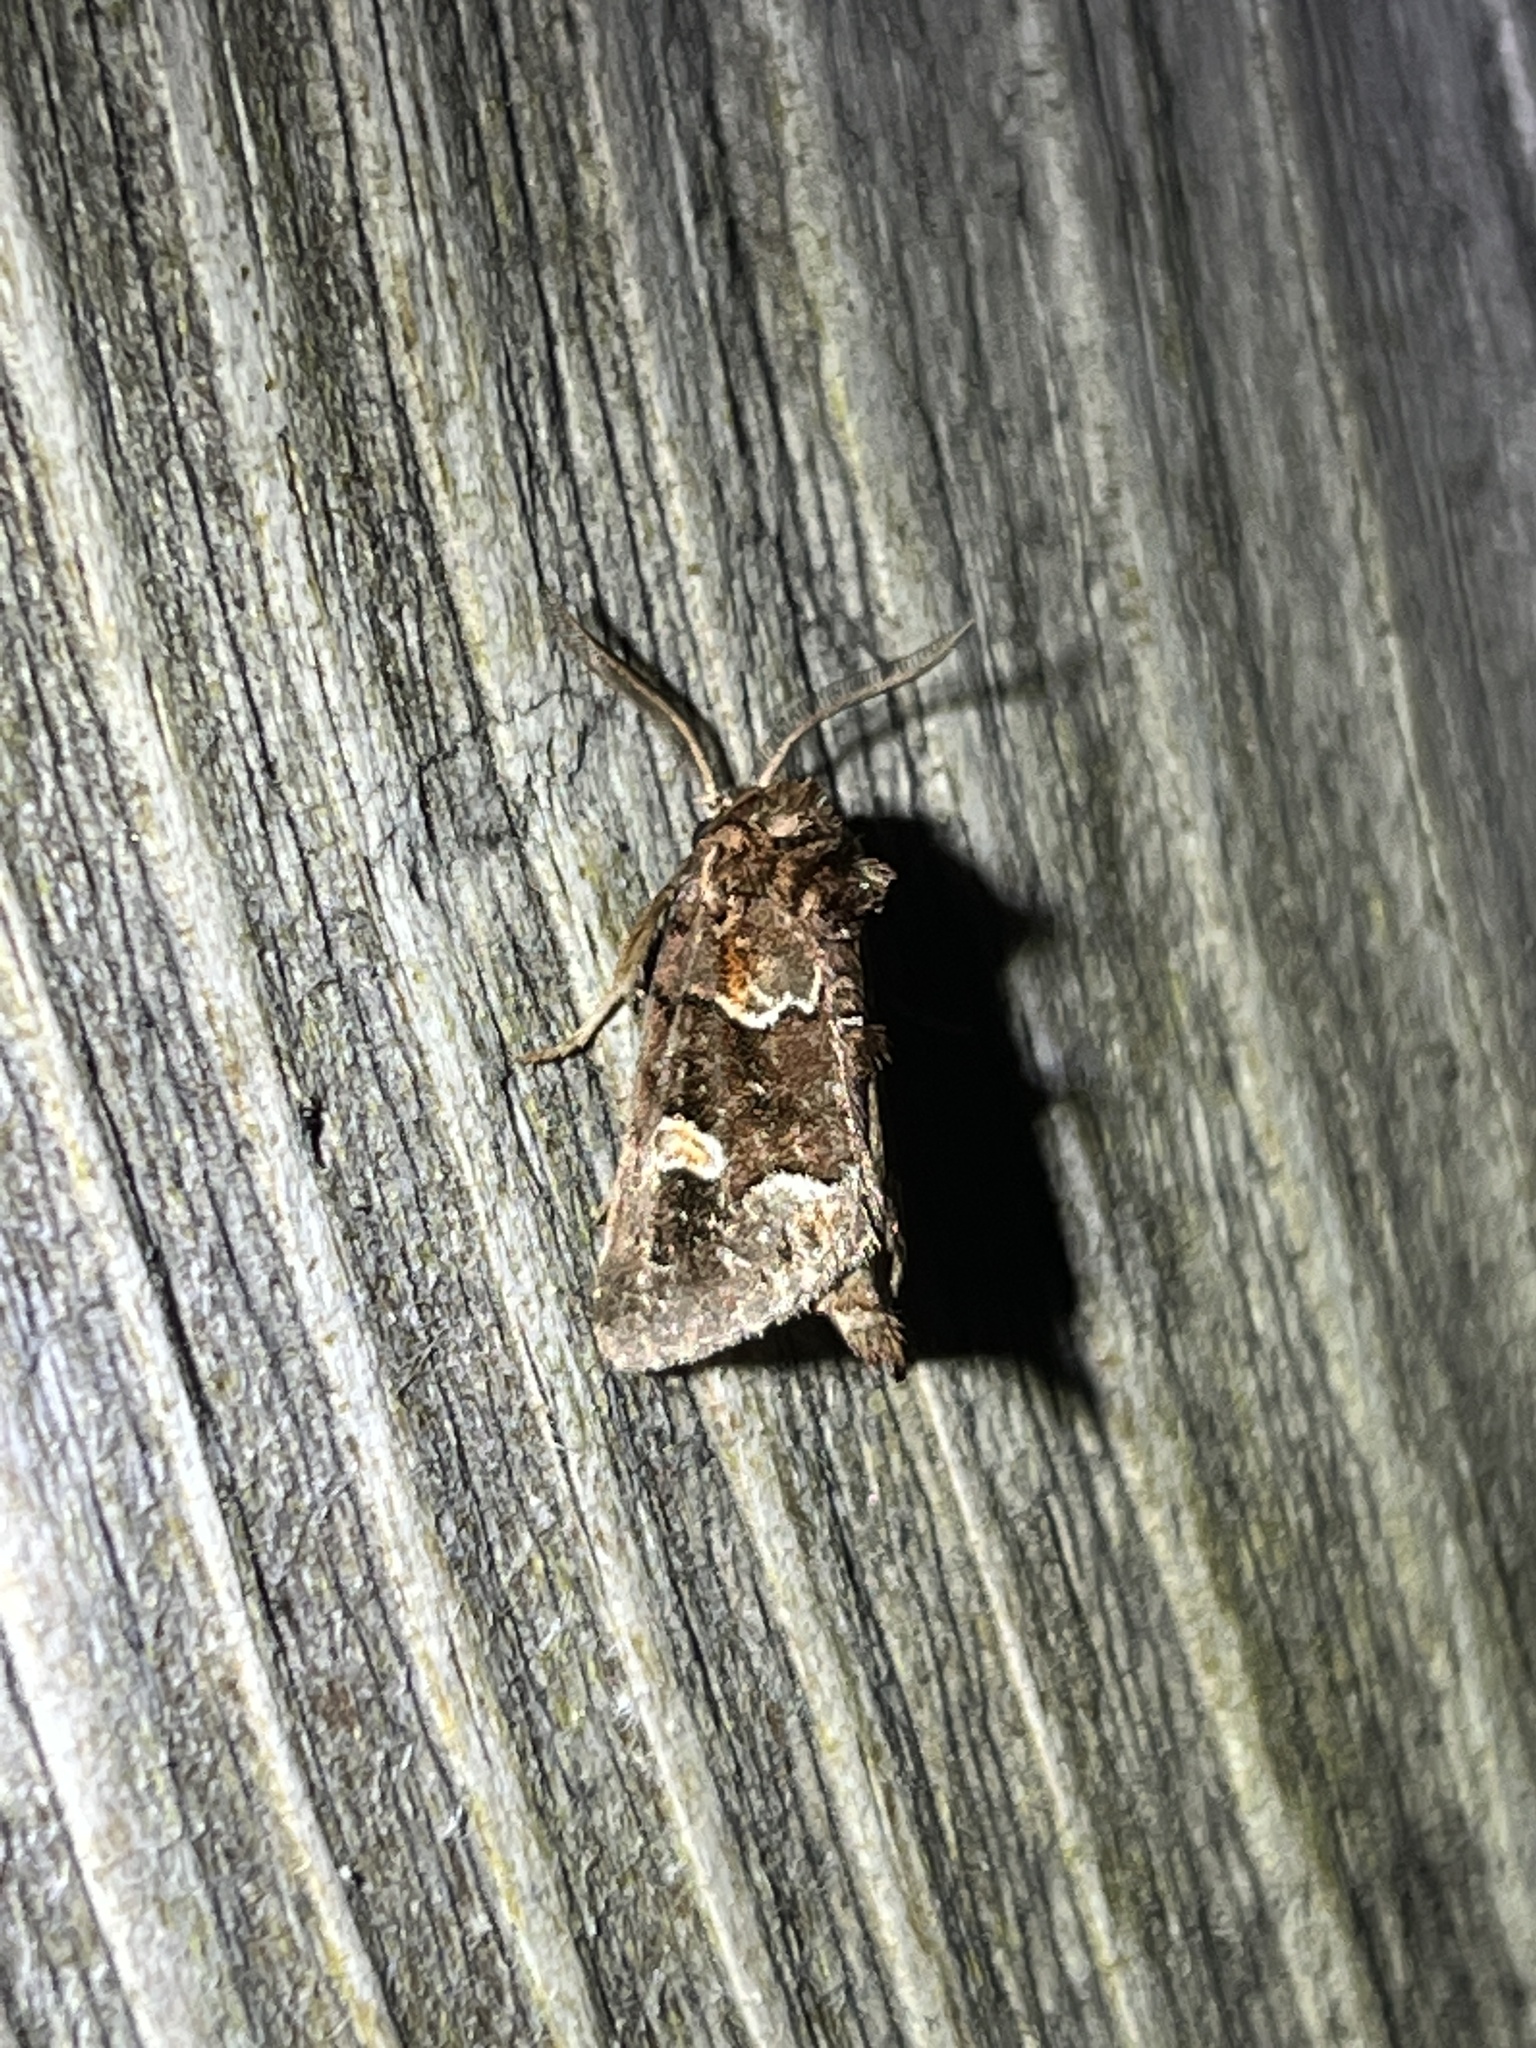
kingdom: Animalia
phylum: Arthropoda
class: Insecta
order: Lepidoptera
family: Noctuidae
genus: Acherdoa
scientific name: Acherdoa ferraria
